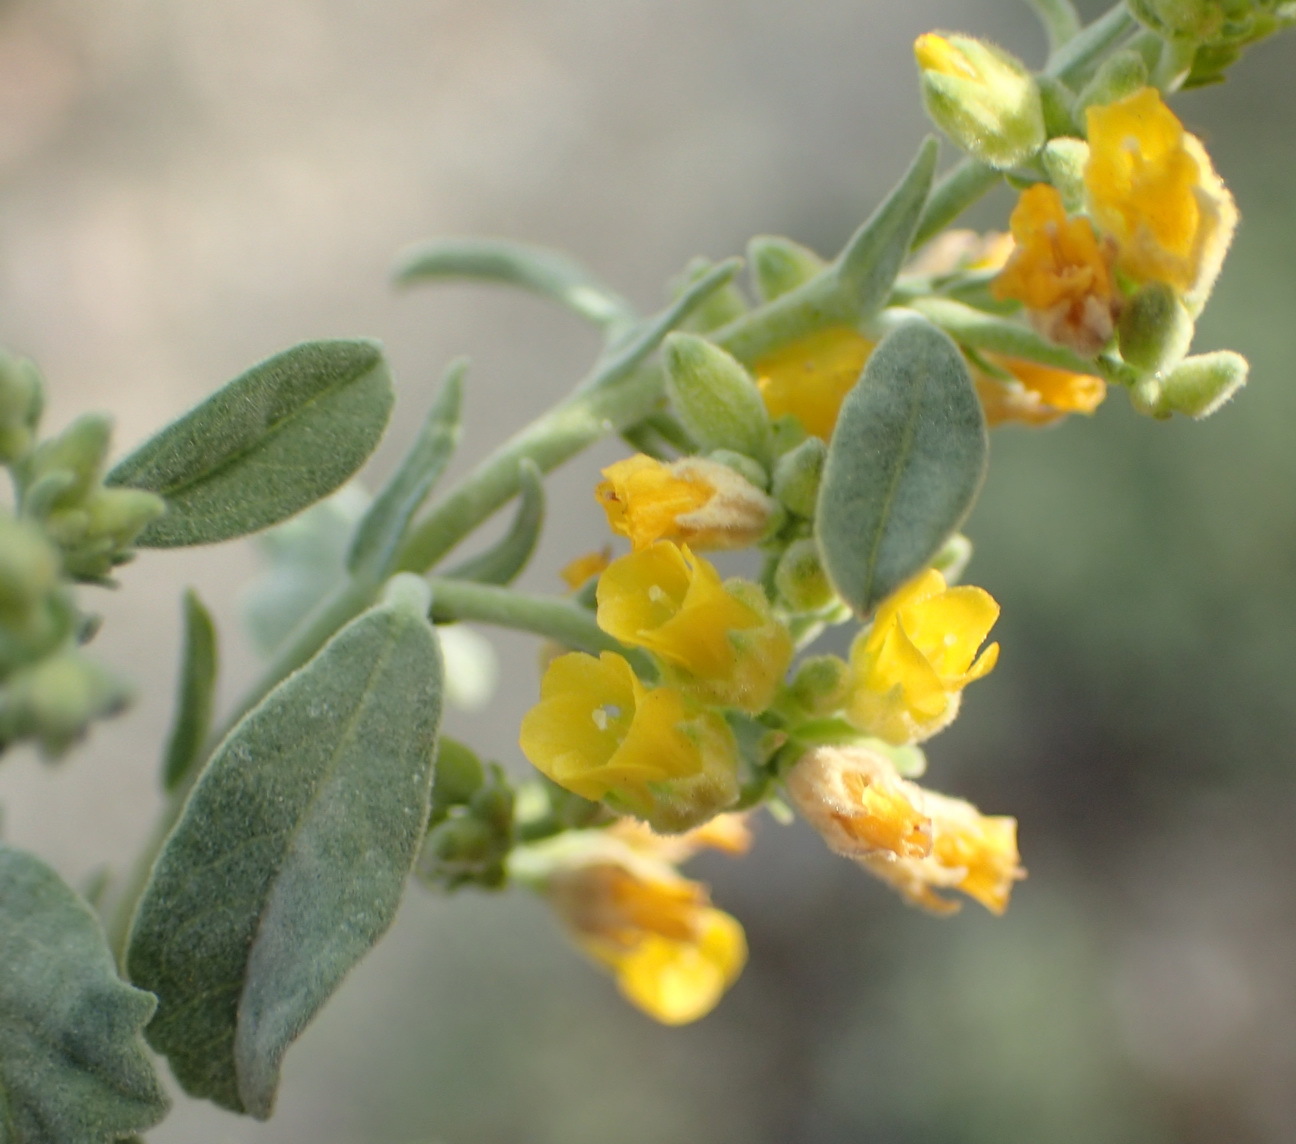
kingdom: Plantae
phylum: Tracheophyta
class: Magnoliopsida
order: Malvales
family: Malvaceae
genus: Hermannia
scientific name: Hermannia holosericea
